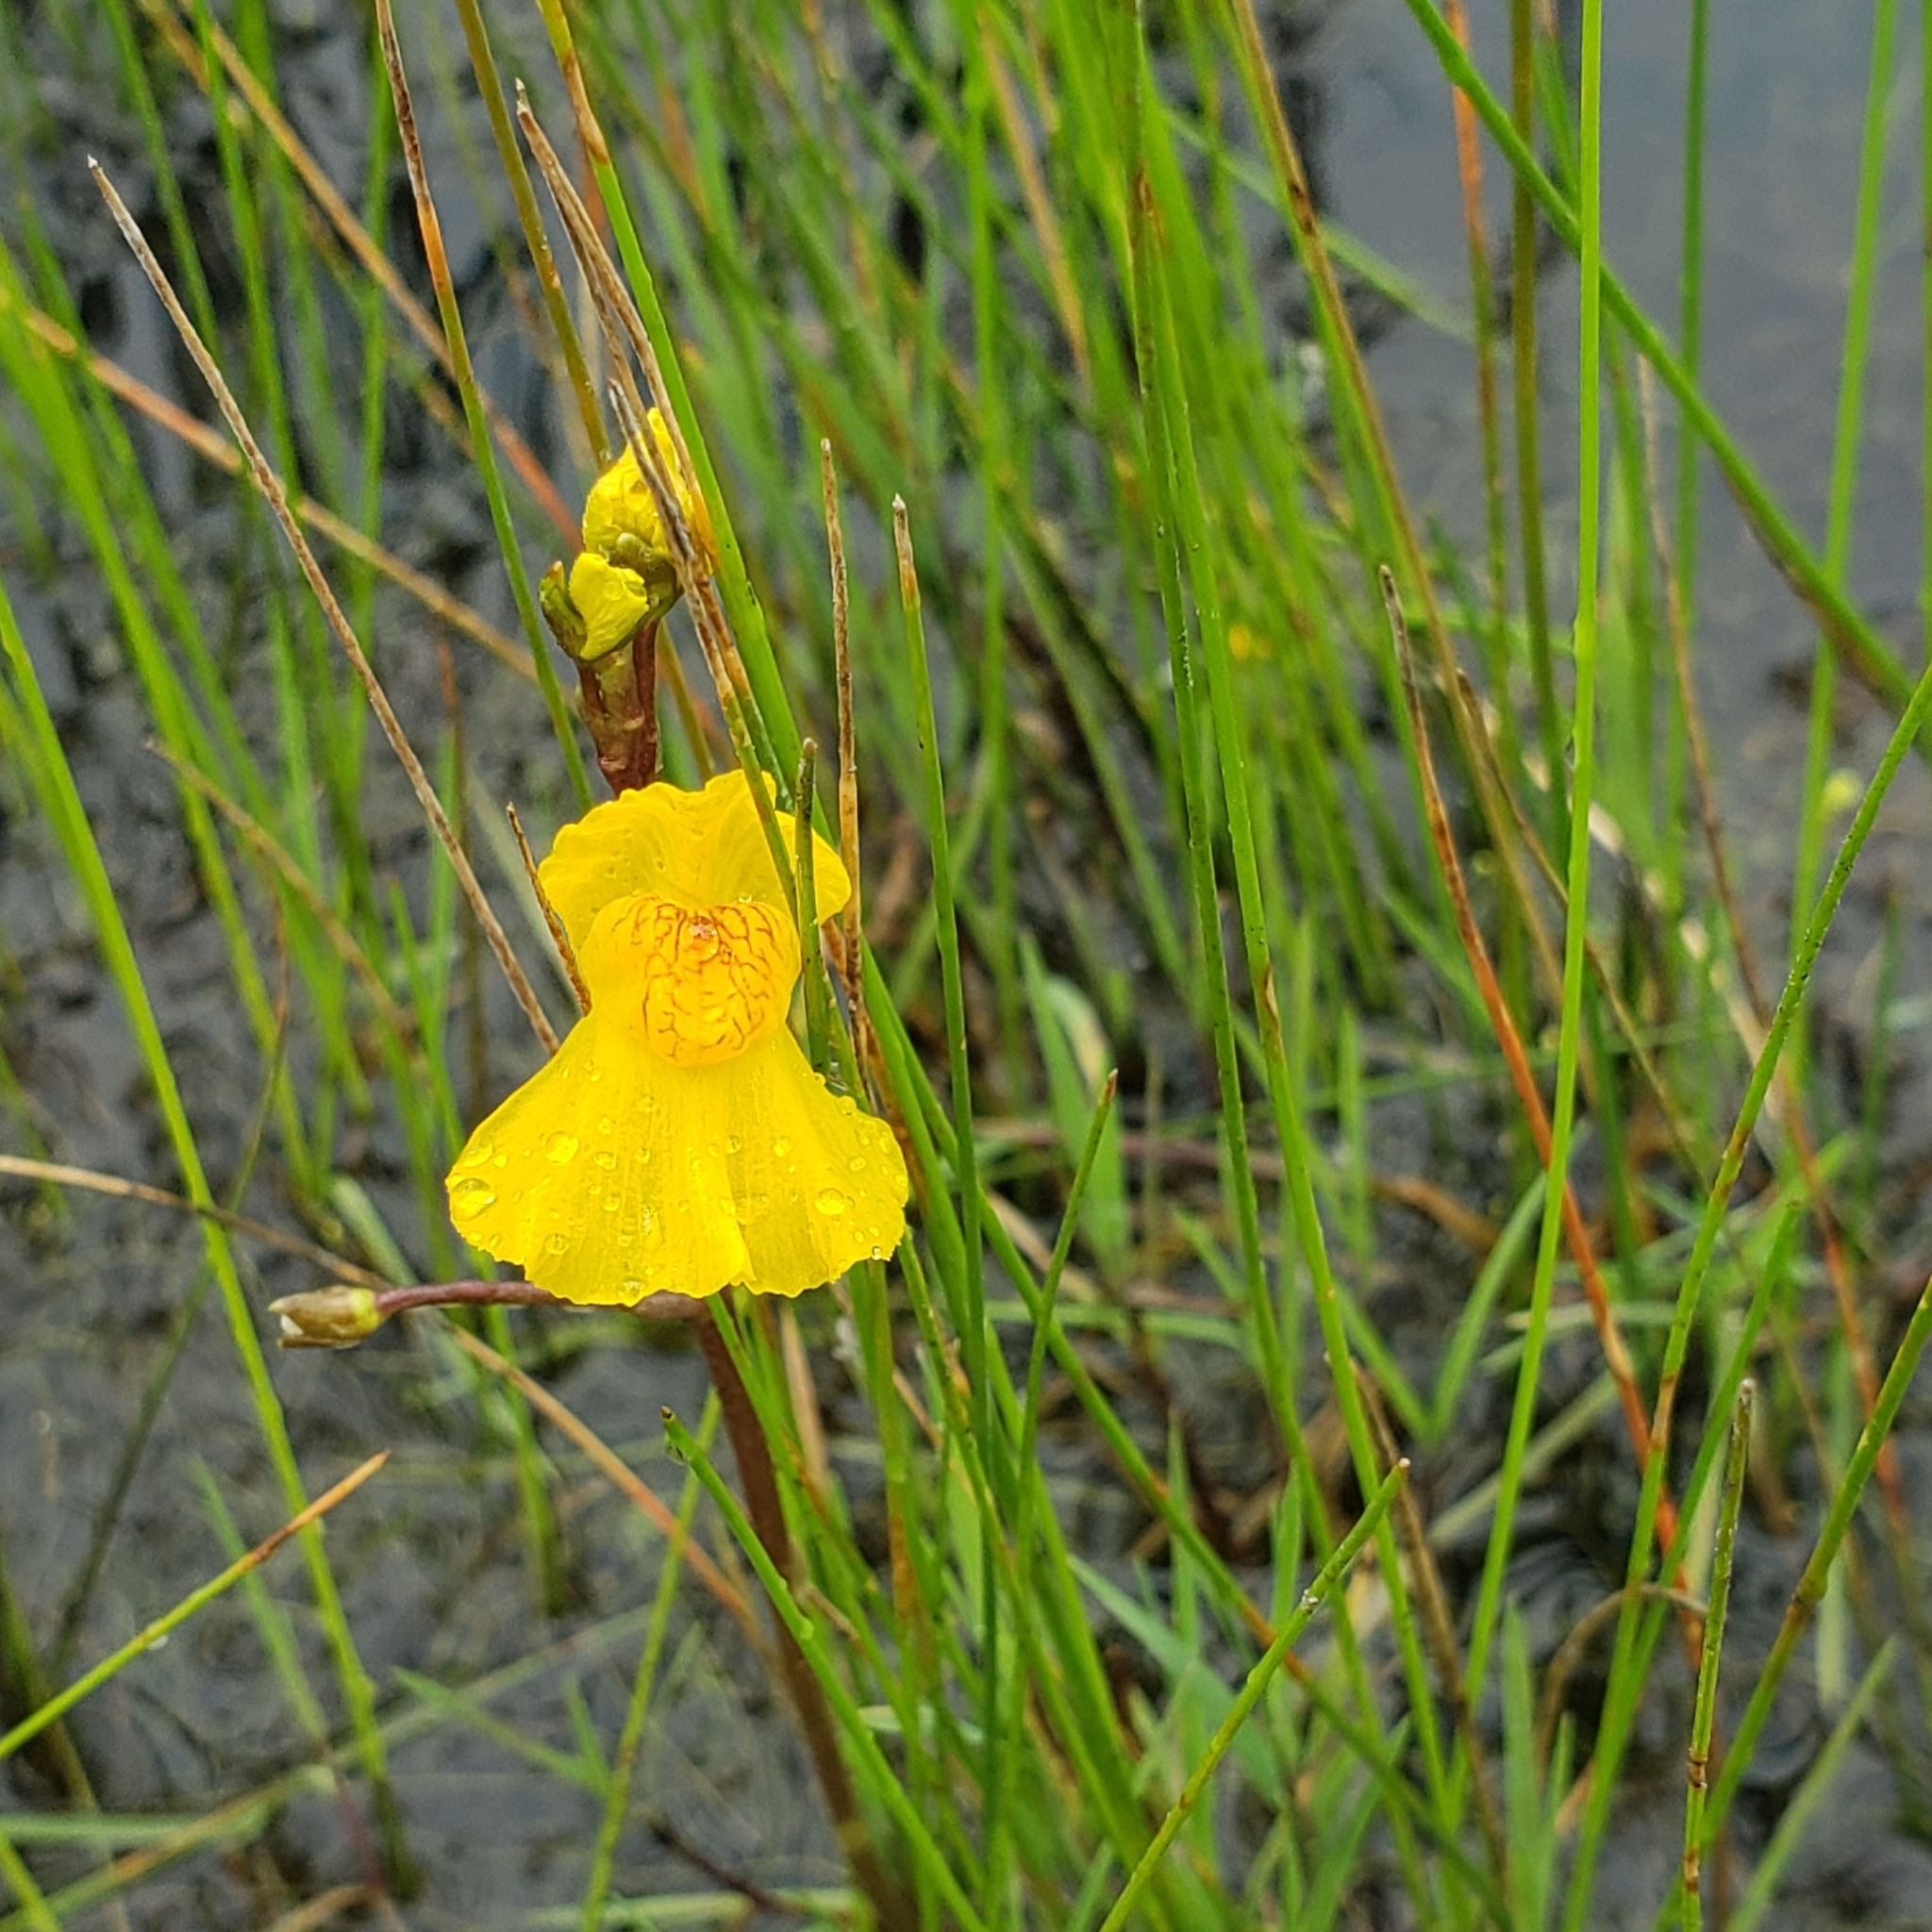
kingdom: Plantae
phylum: Tracheophyta
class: Magnoliopsida
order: Lamiales
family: Lentibulariaceae
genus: Utricularia
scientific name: Utricularia macrorhiza
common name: Common bladderwort
